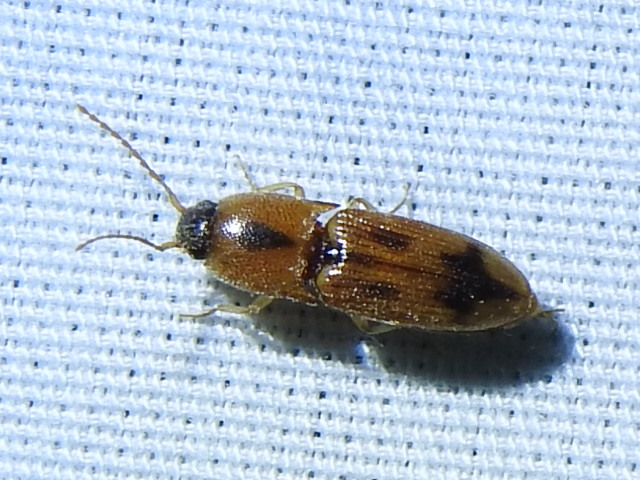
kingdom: Animalia
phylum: Arthropoda
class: Insecta
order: Coleoptera
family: Elateridae
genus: Aeolus
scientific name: Aeolus
